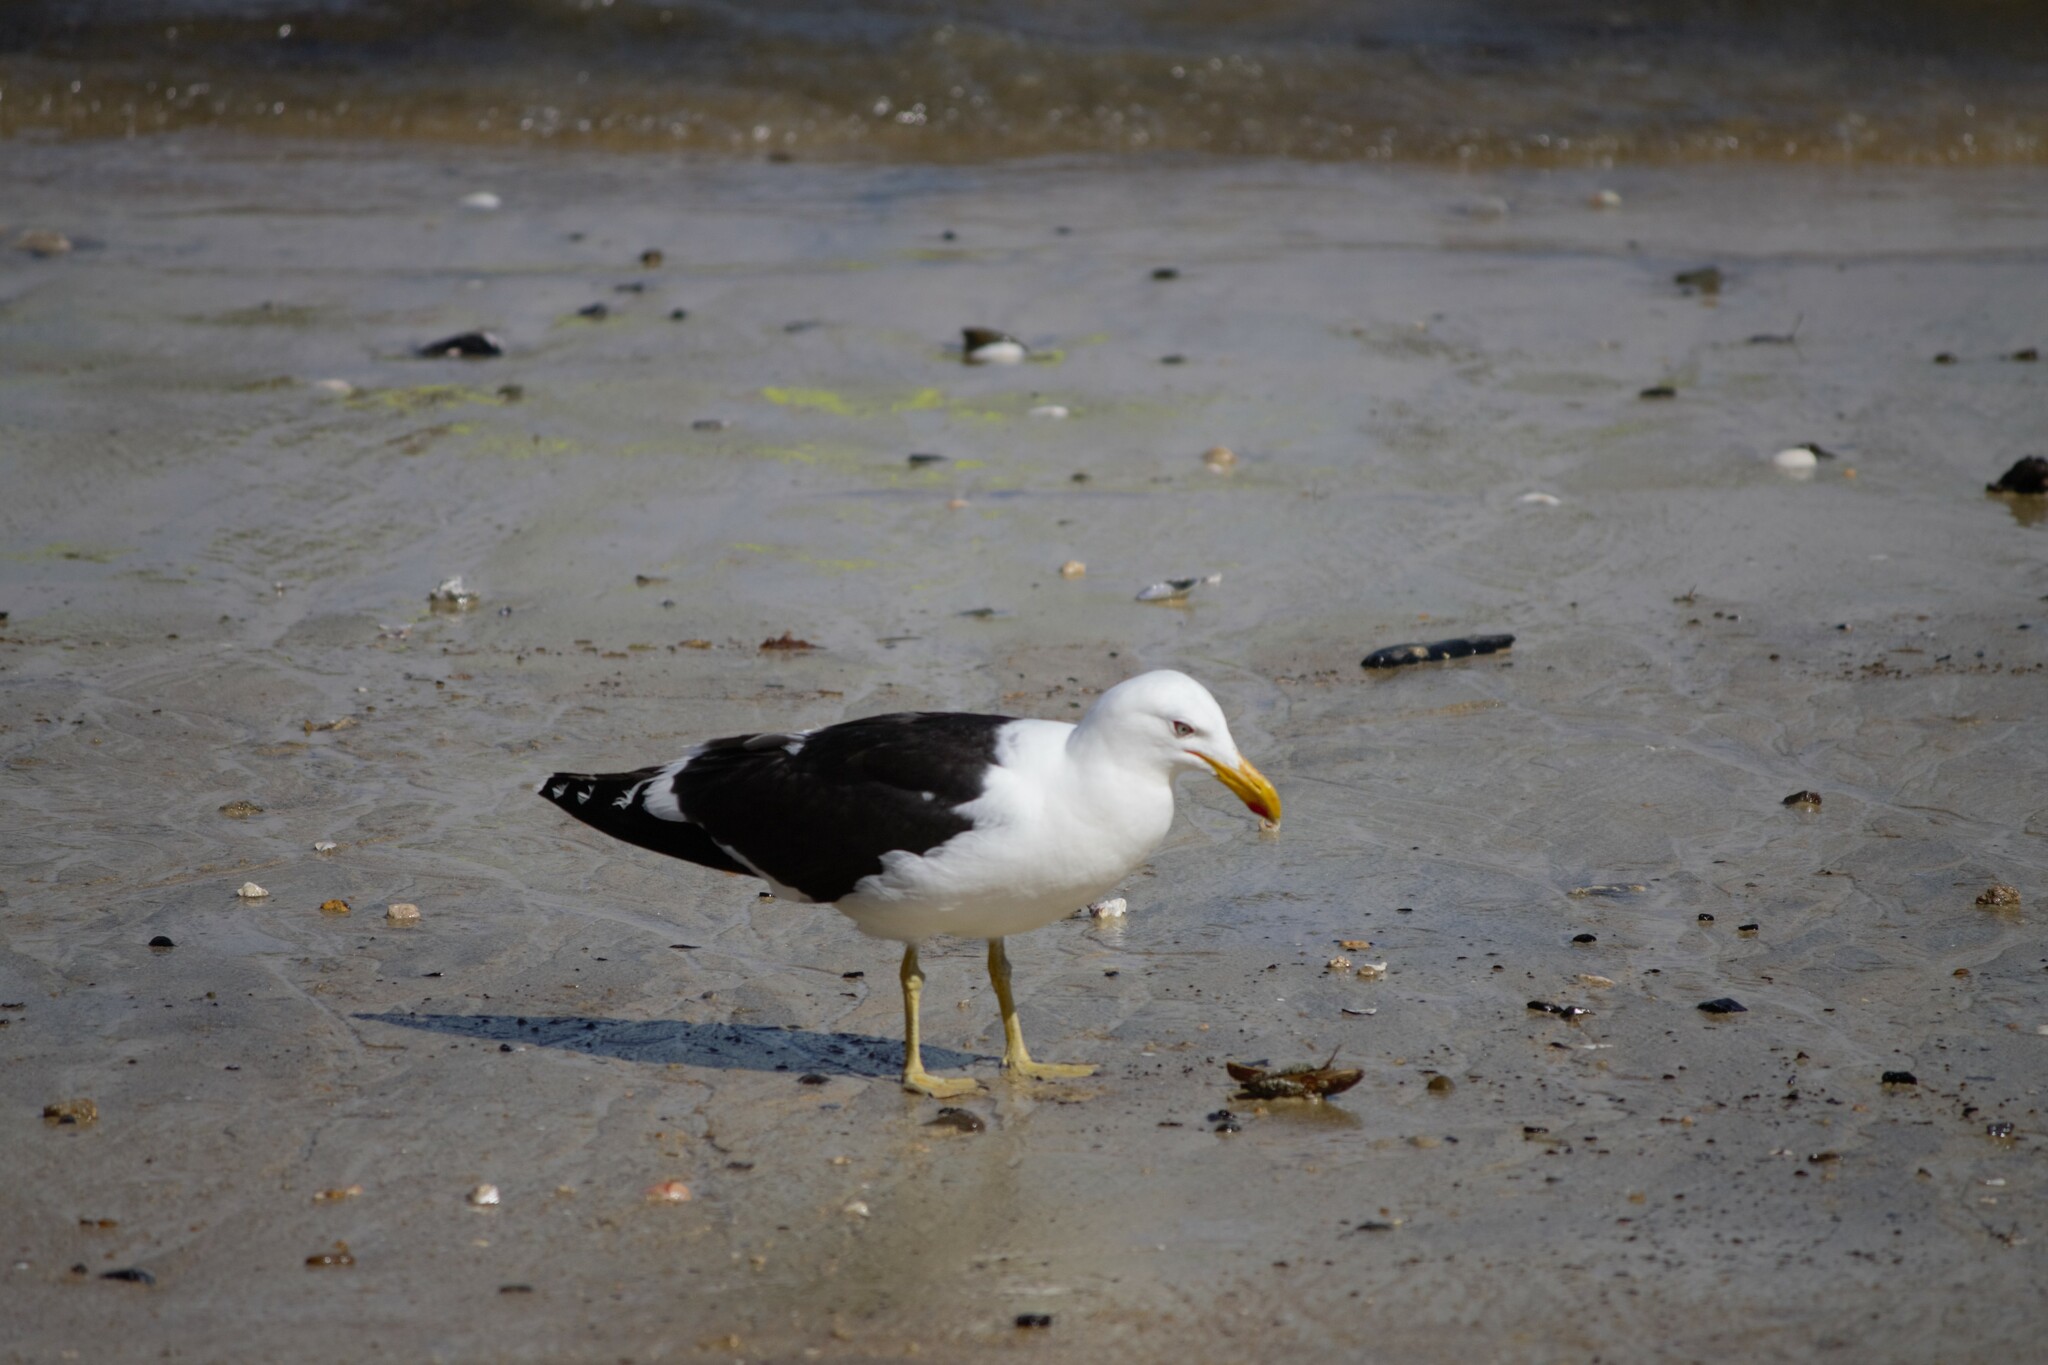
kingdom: Animalia
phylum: Chordata
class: Aves
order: Charadriiformes
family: Laridae
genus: Larus
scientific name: Larus dominicanus
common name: Kelp gull
